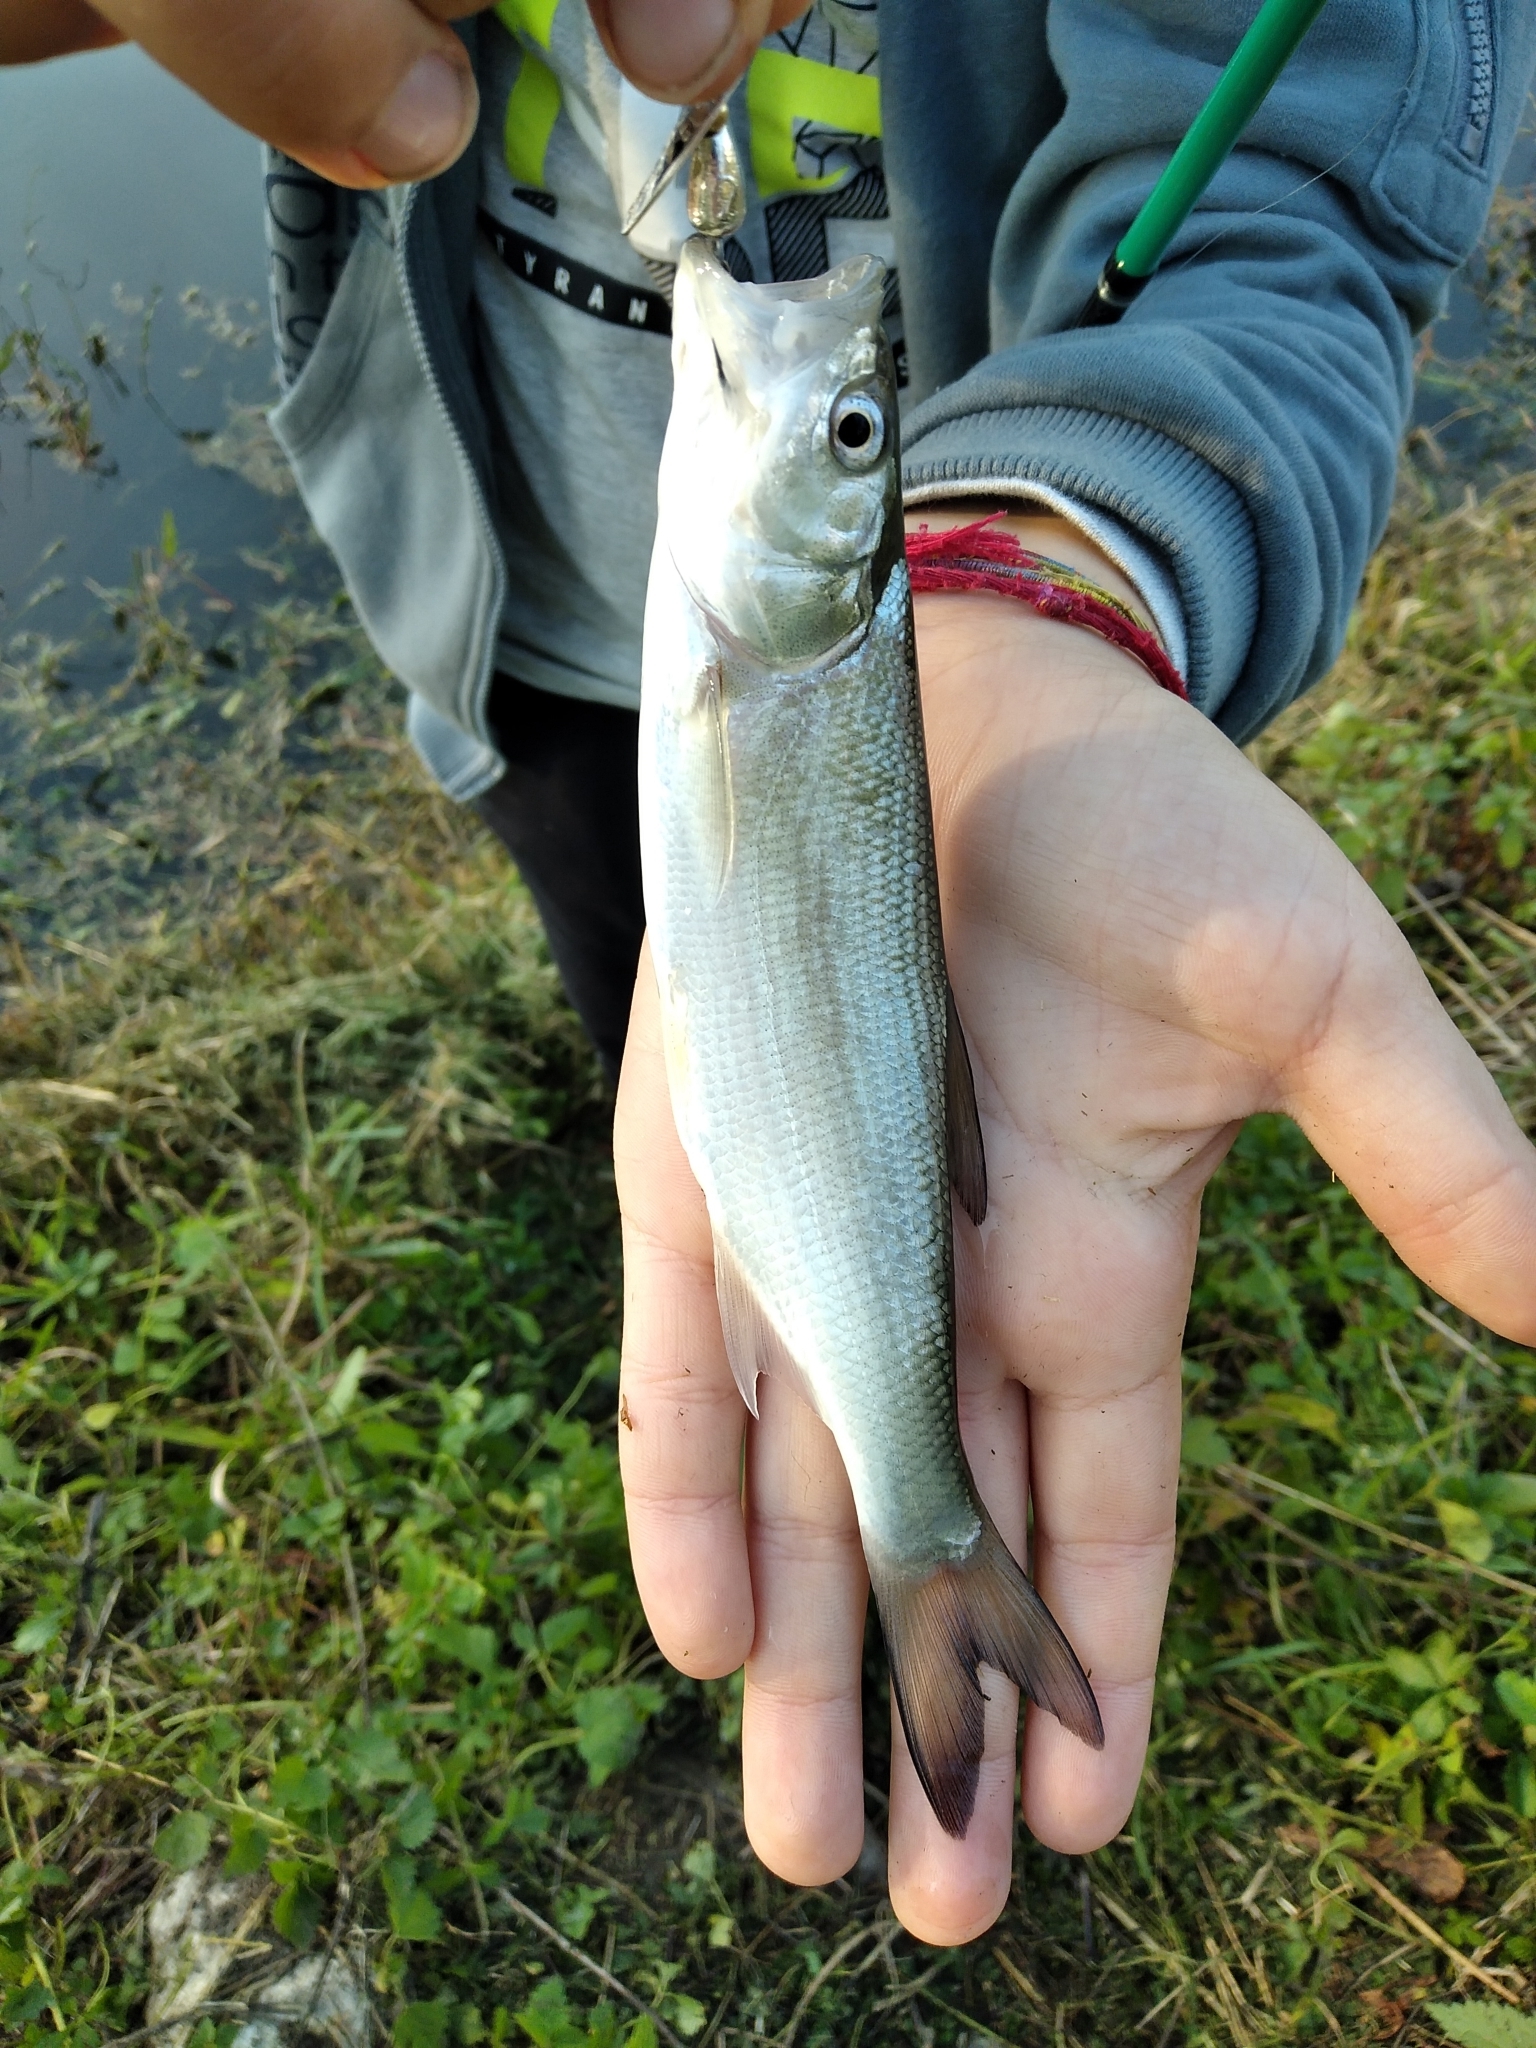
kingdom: Animalia
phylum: Chordata
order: Cypriniformes
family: Cyprinidae
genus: Leuciscus
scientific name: Leuciscus aspius
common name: Asp
